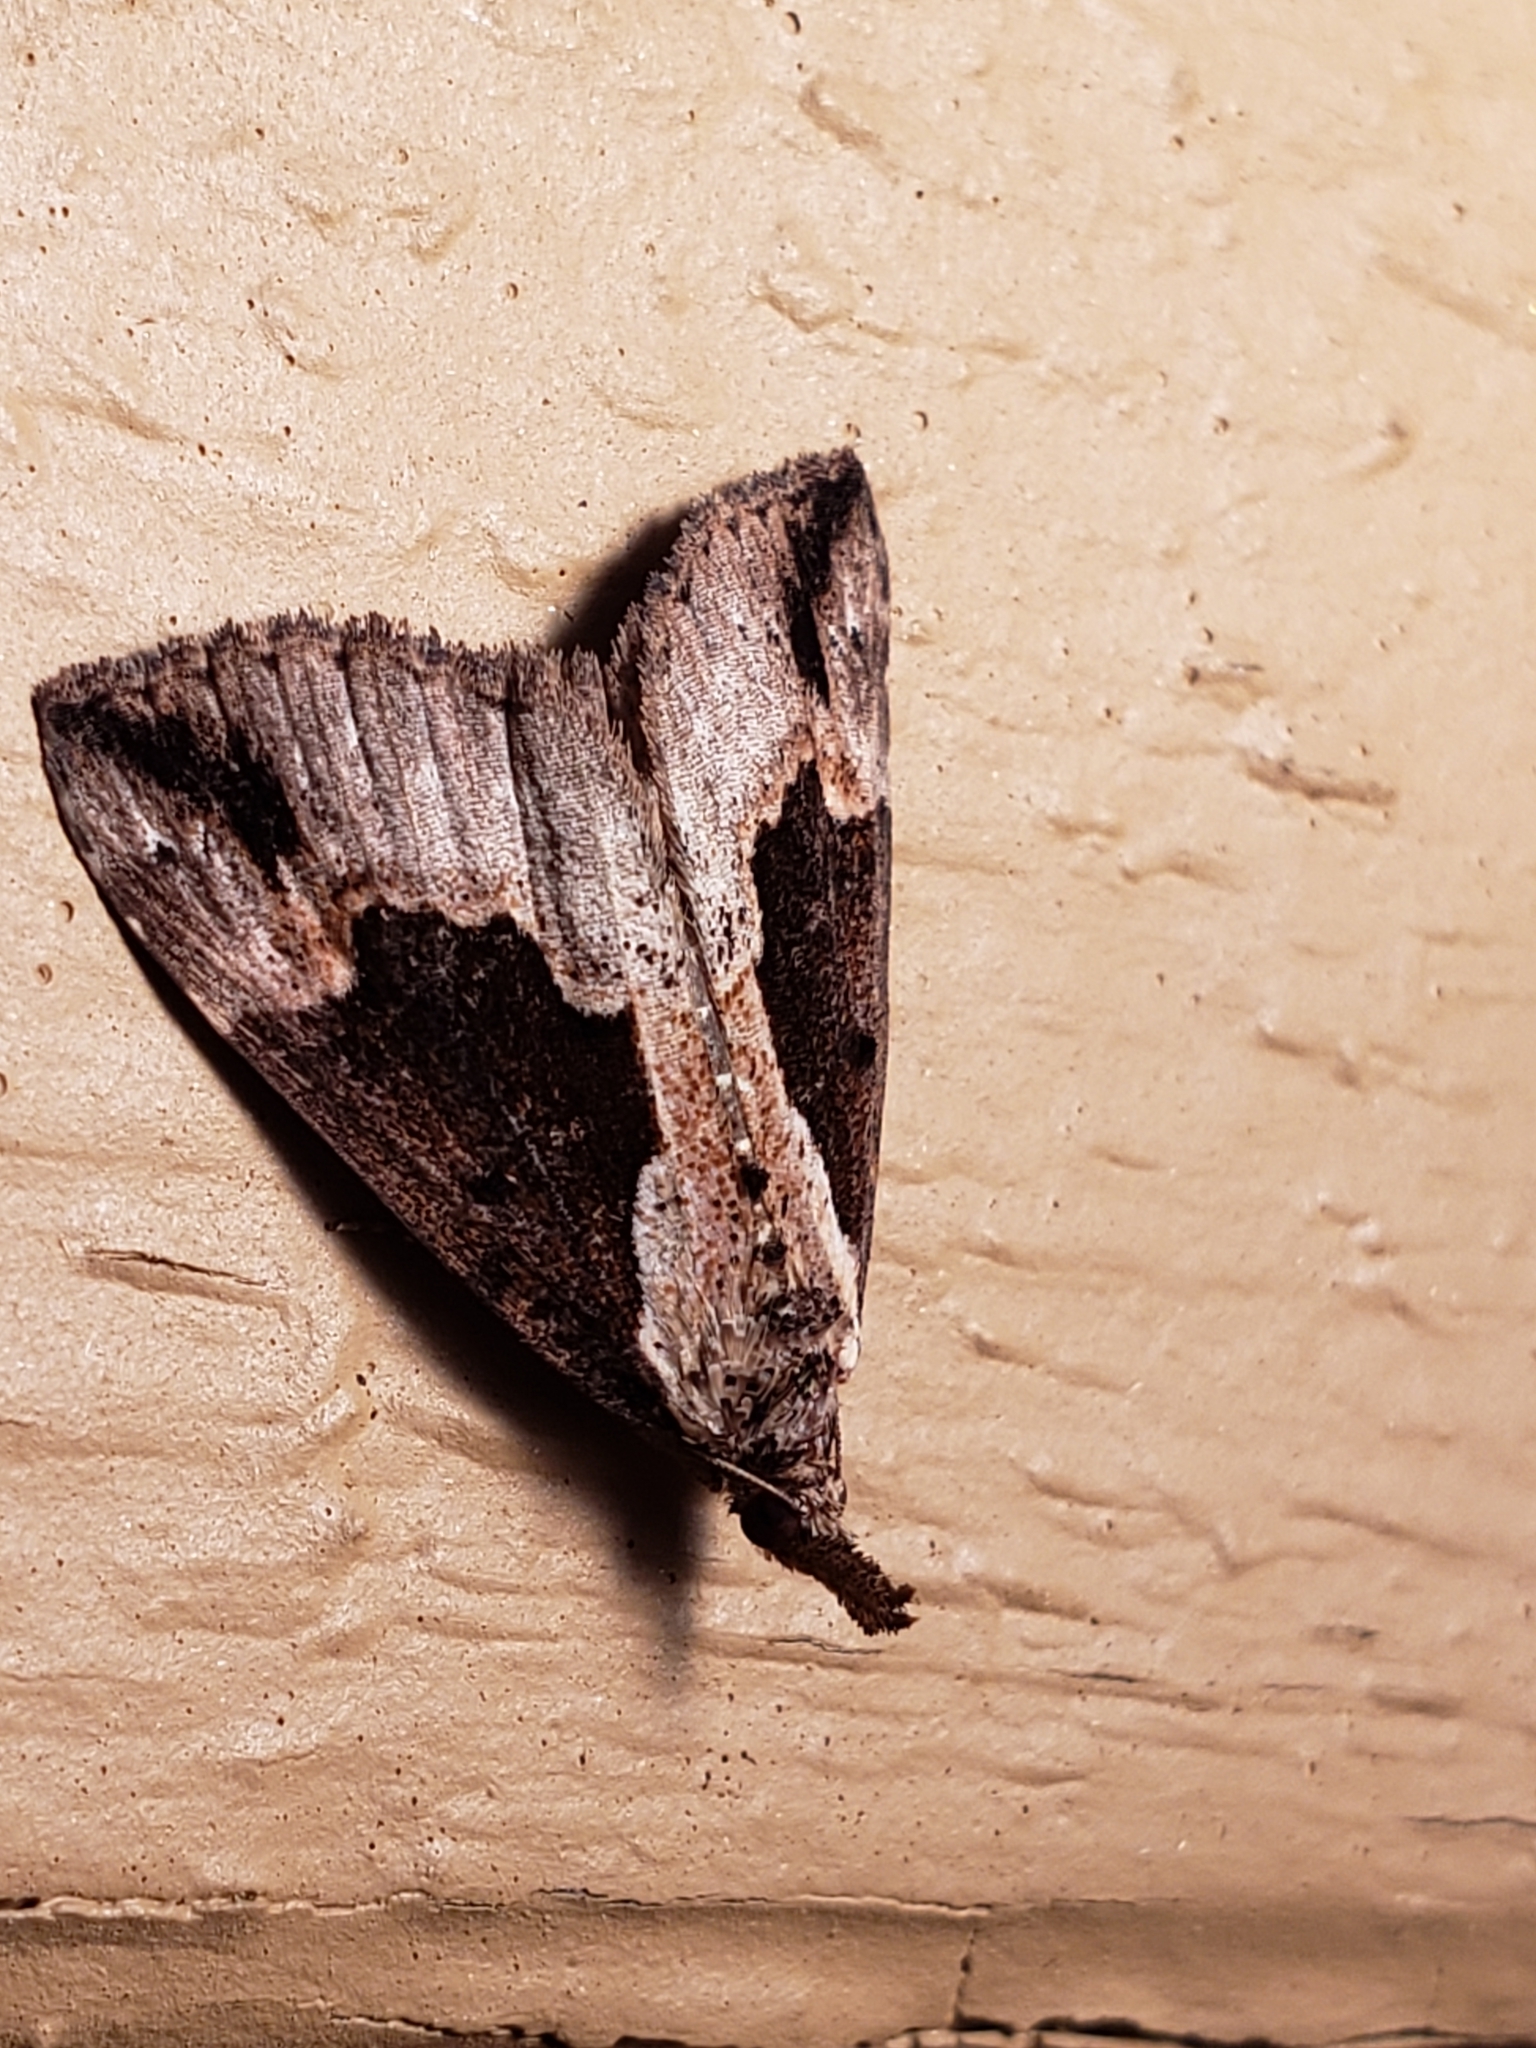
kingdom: Animalia
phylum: Arthropoda
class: Insecta
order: Lepidoptera
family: Erebidae
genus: Hypena
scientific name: Hypena baltimoralis
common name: Baltimore snout
